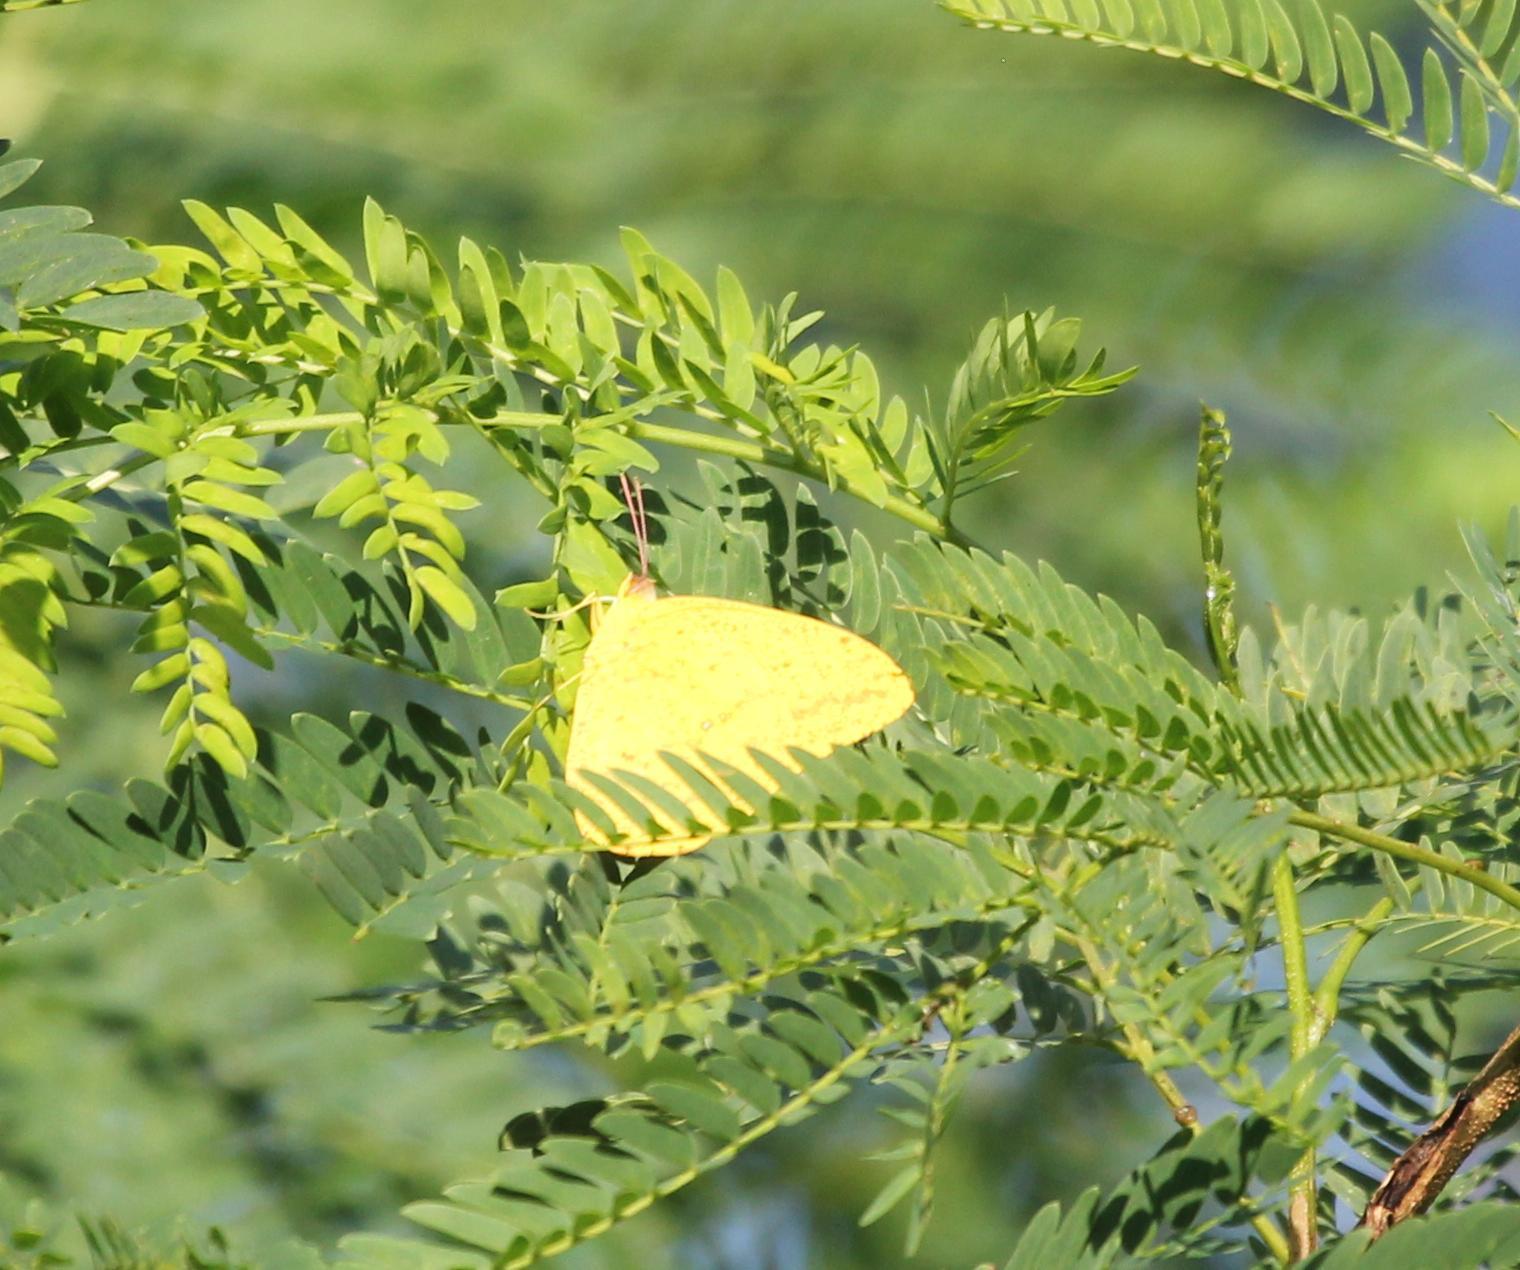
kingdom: Animalia
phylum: Arthropoda
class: Insecta
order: Lepidoptera
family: Pieridae
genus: Phoebis
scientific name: Phoebis agarithe
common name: Large orange sulphur
